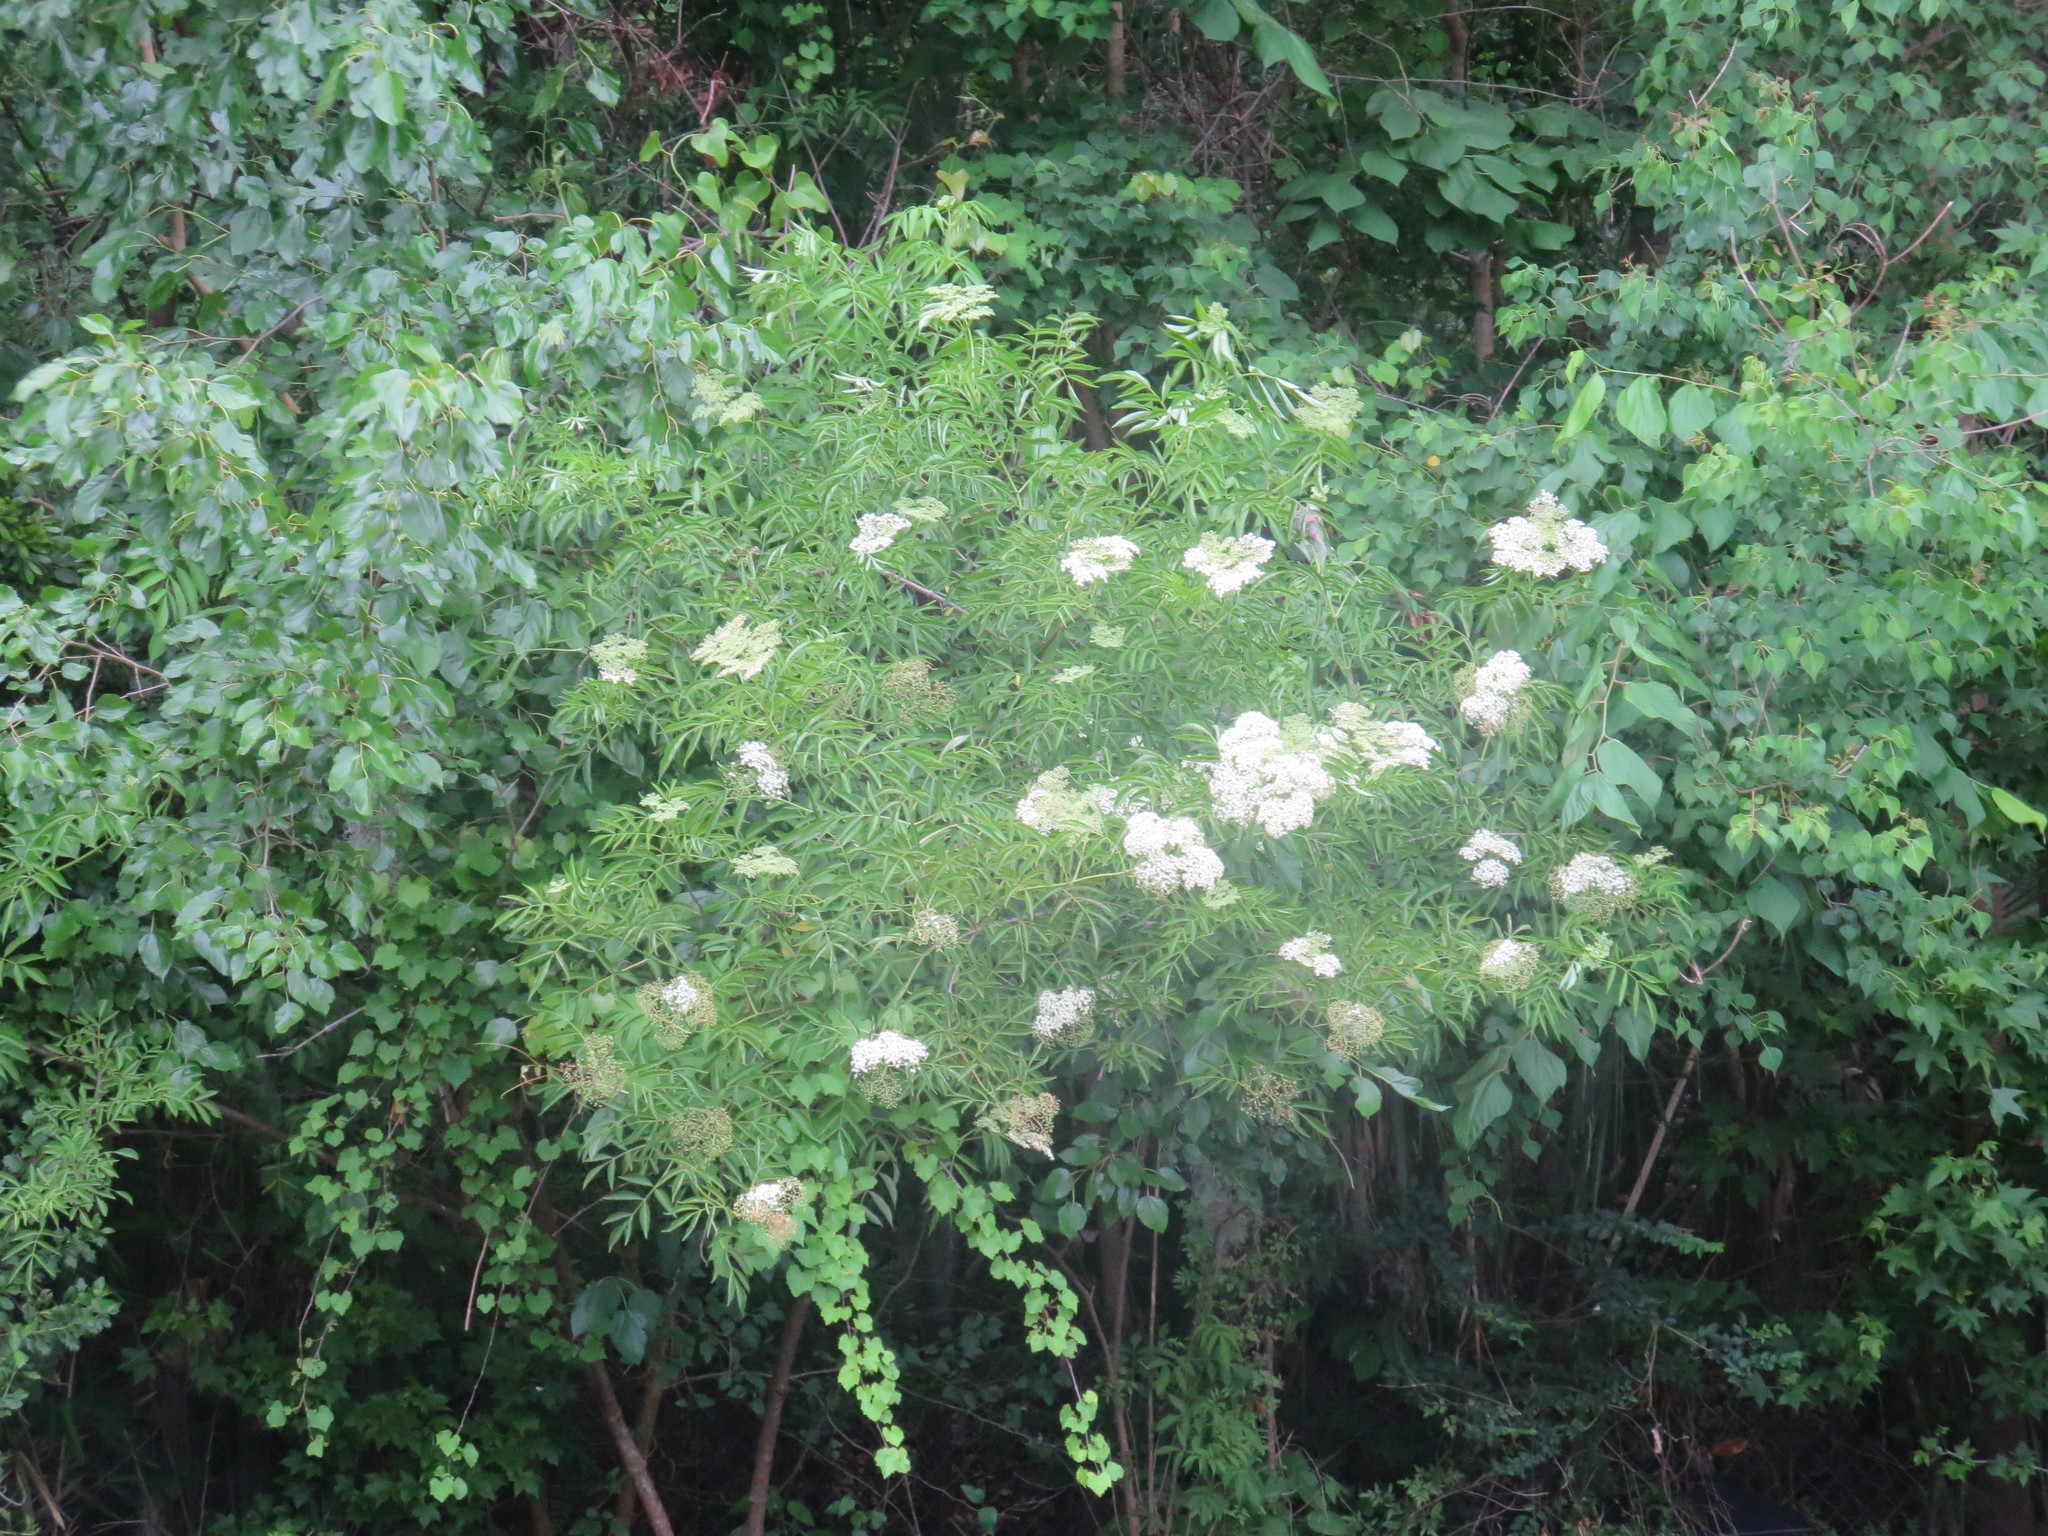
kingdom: Plantae
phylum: Tracheophyta
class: Magnoliopsida
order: Dipsacales
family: Viburnaceae
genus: Sambucus
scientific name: Sambucus canadensis
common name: American elder
